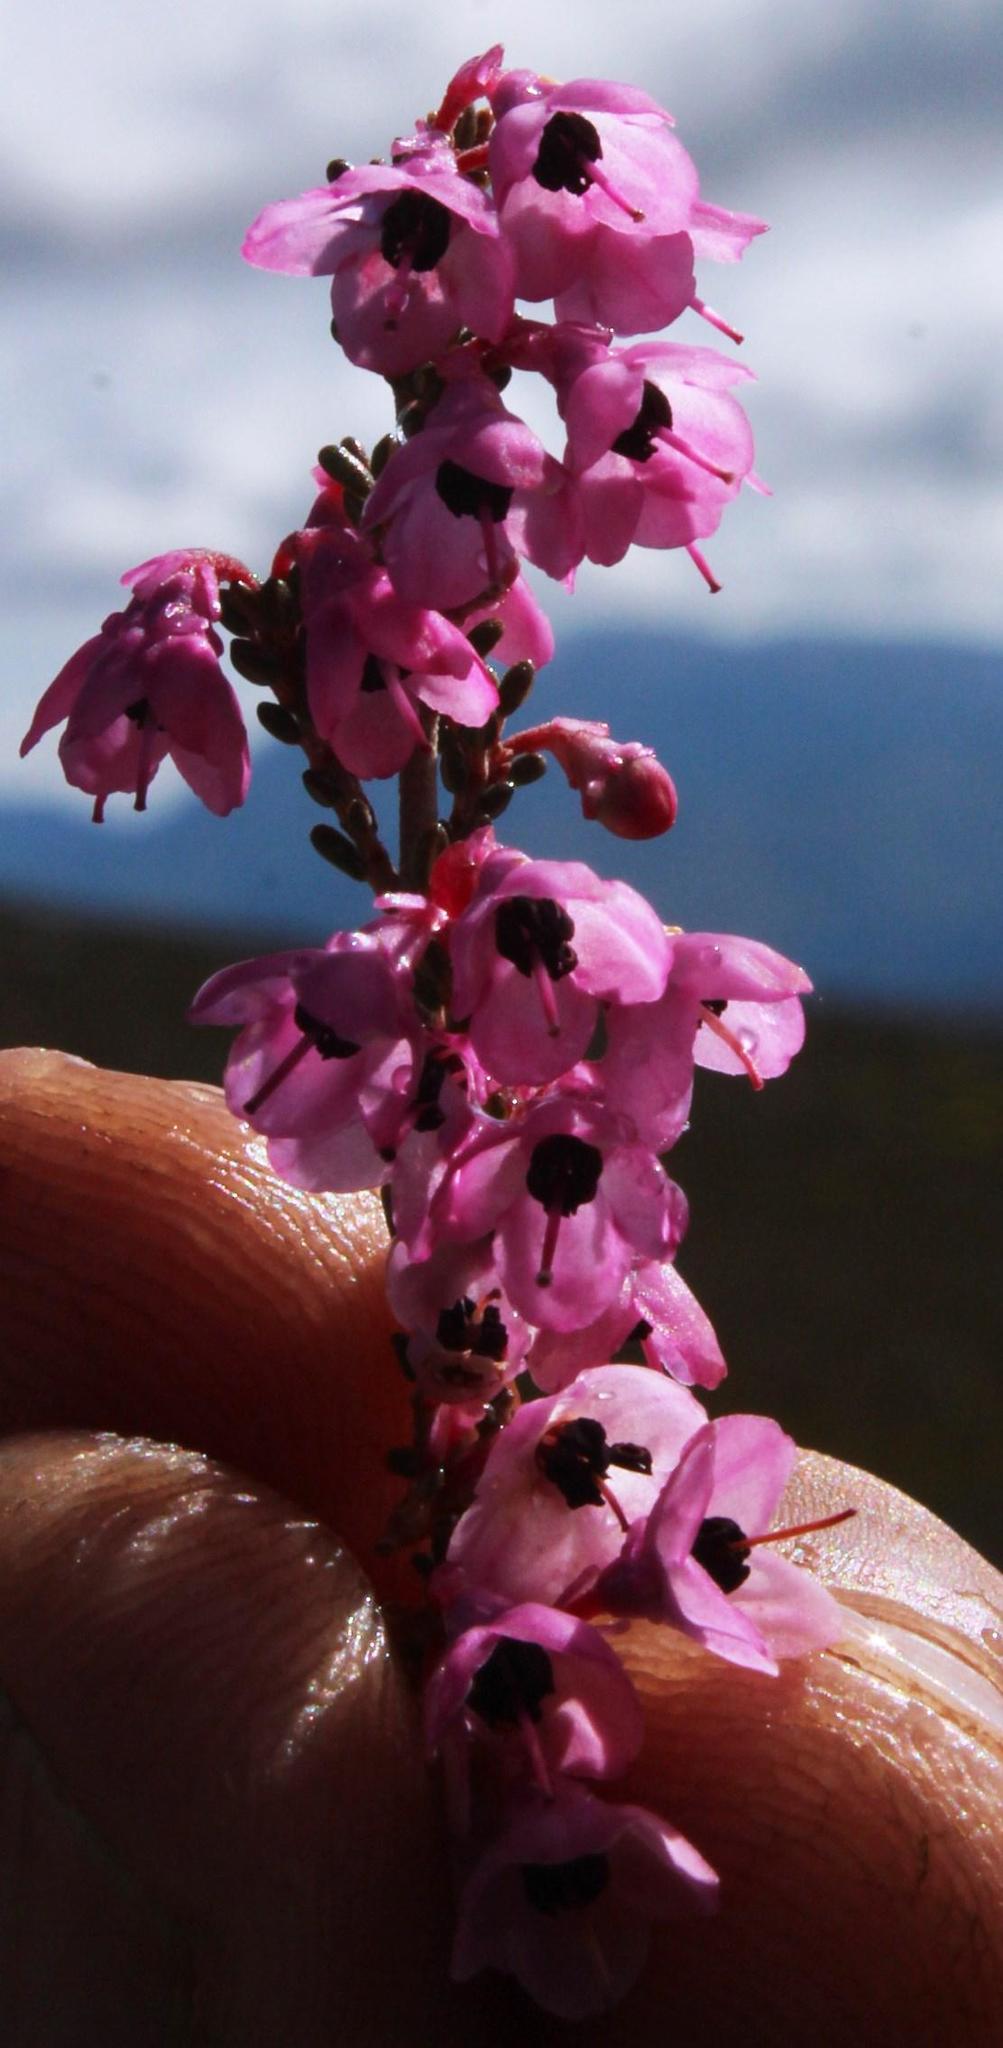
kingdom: Plantae
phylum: Tracheophyta
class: Magnoliopsida
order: Ericales
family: Ericaceae
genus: Erica
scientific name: Erica melanthera
